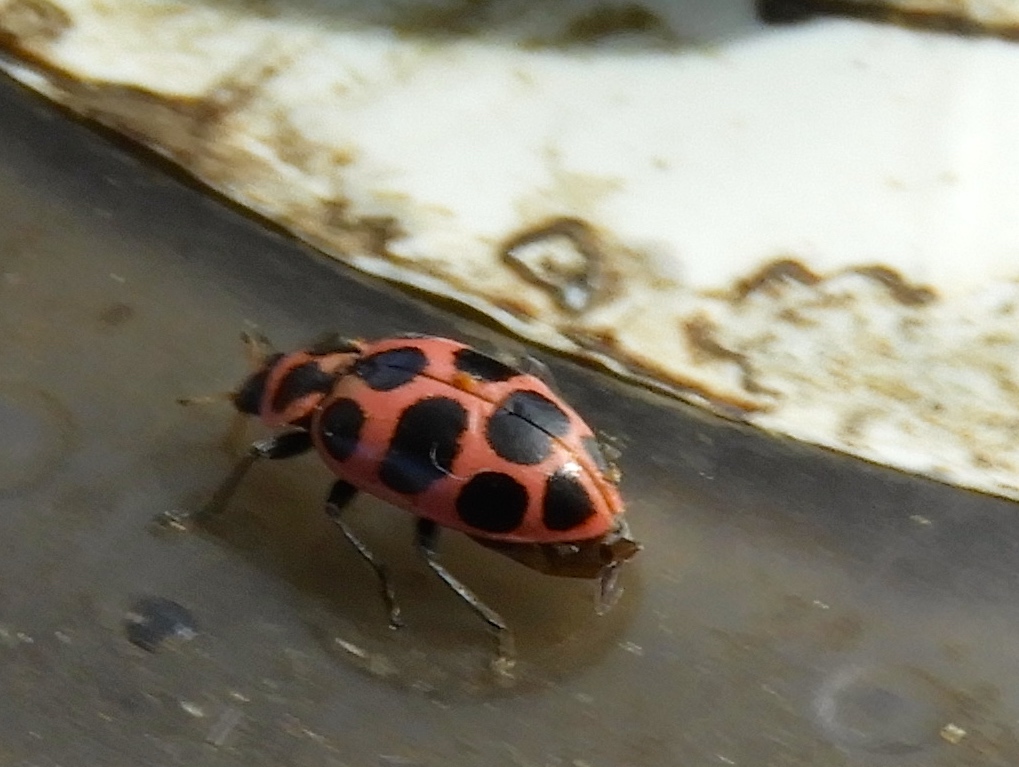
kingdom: Animalia
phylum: Arthropoda
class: Insecta
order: Coleoptera
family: Coccinellidae
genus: Coleomegilla
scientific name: Coleomegilla maculata
